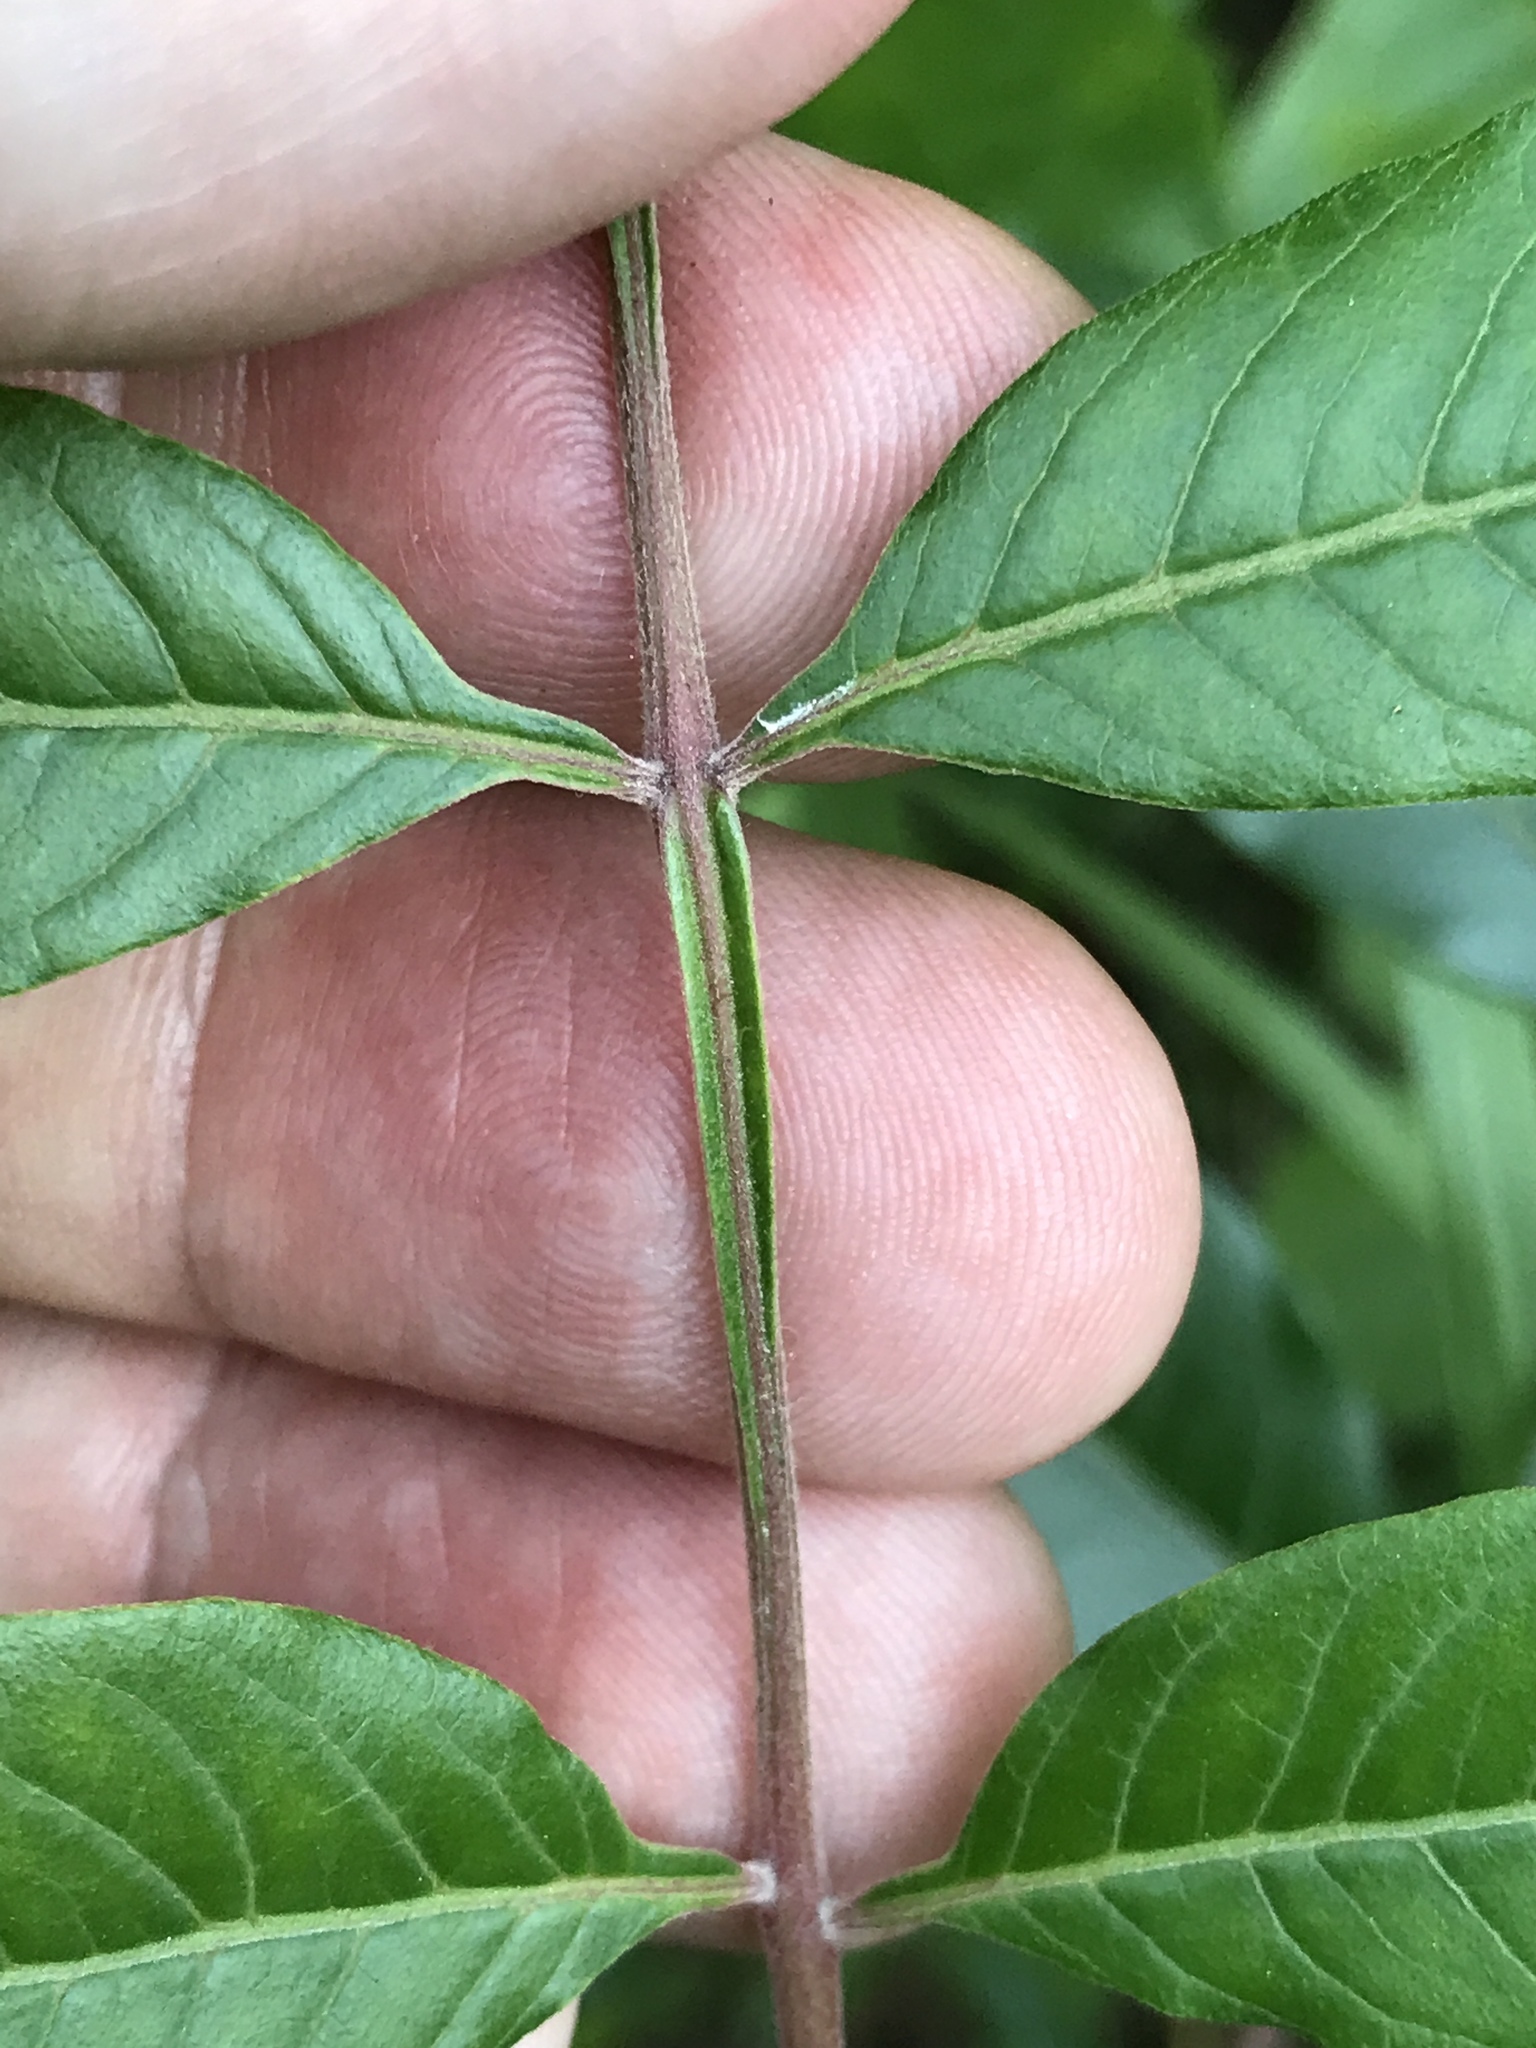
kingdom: Plantae
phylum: Tracheophyta
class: Magnoliopsida
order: Sapindales
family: Anacardiaceae
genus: Rhus
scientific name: Rhus copallina
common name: Shining sumac
